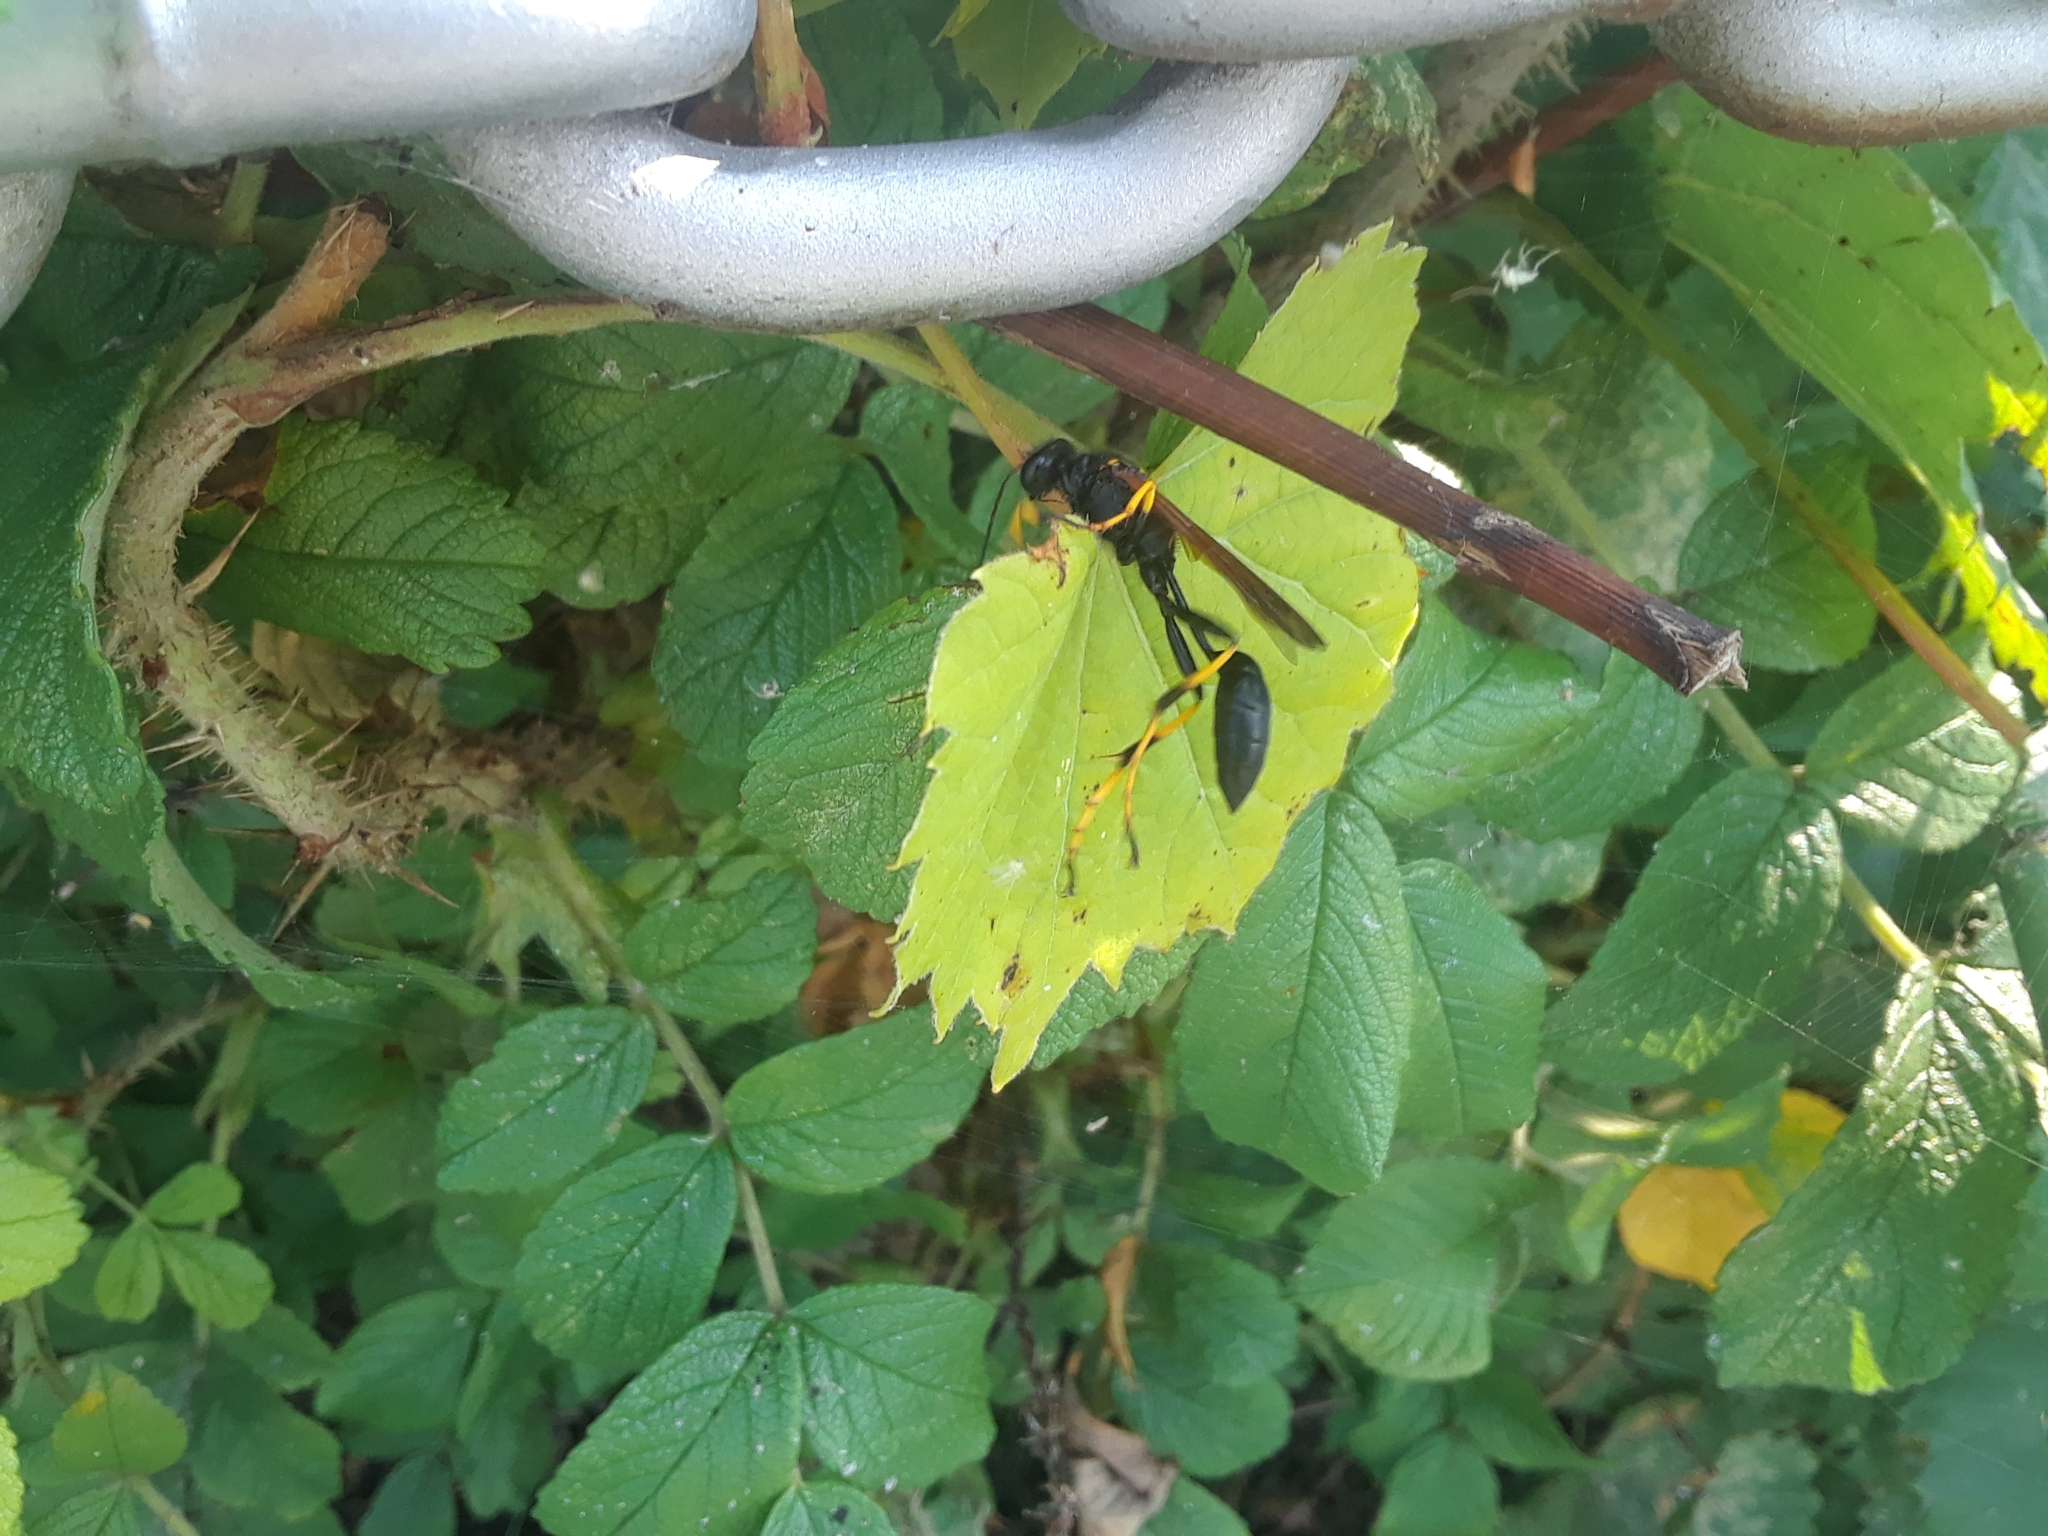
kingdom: Animalia
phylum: Arthropoda
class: Insecta
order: Hymenoptera
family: Sphecidae
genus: Sceliphron
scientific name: Sceliphron caementarium
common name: Mud dauber
